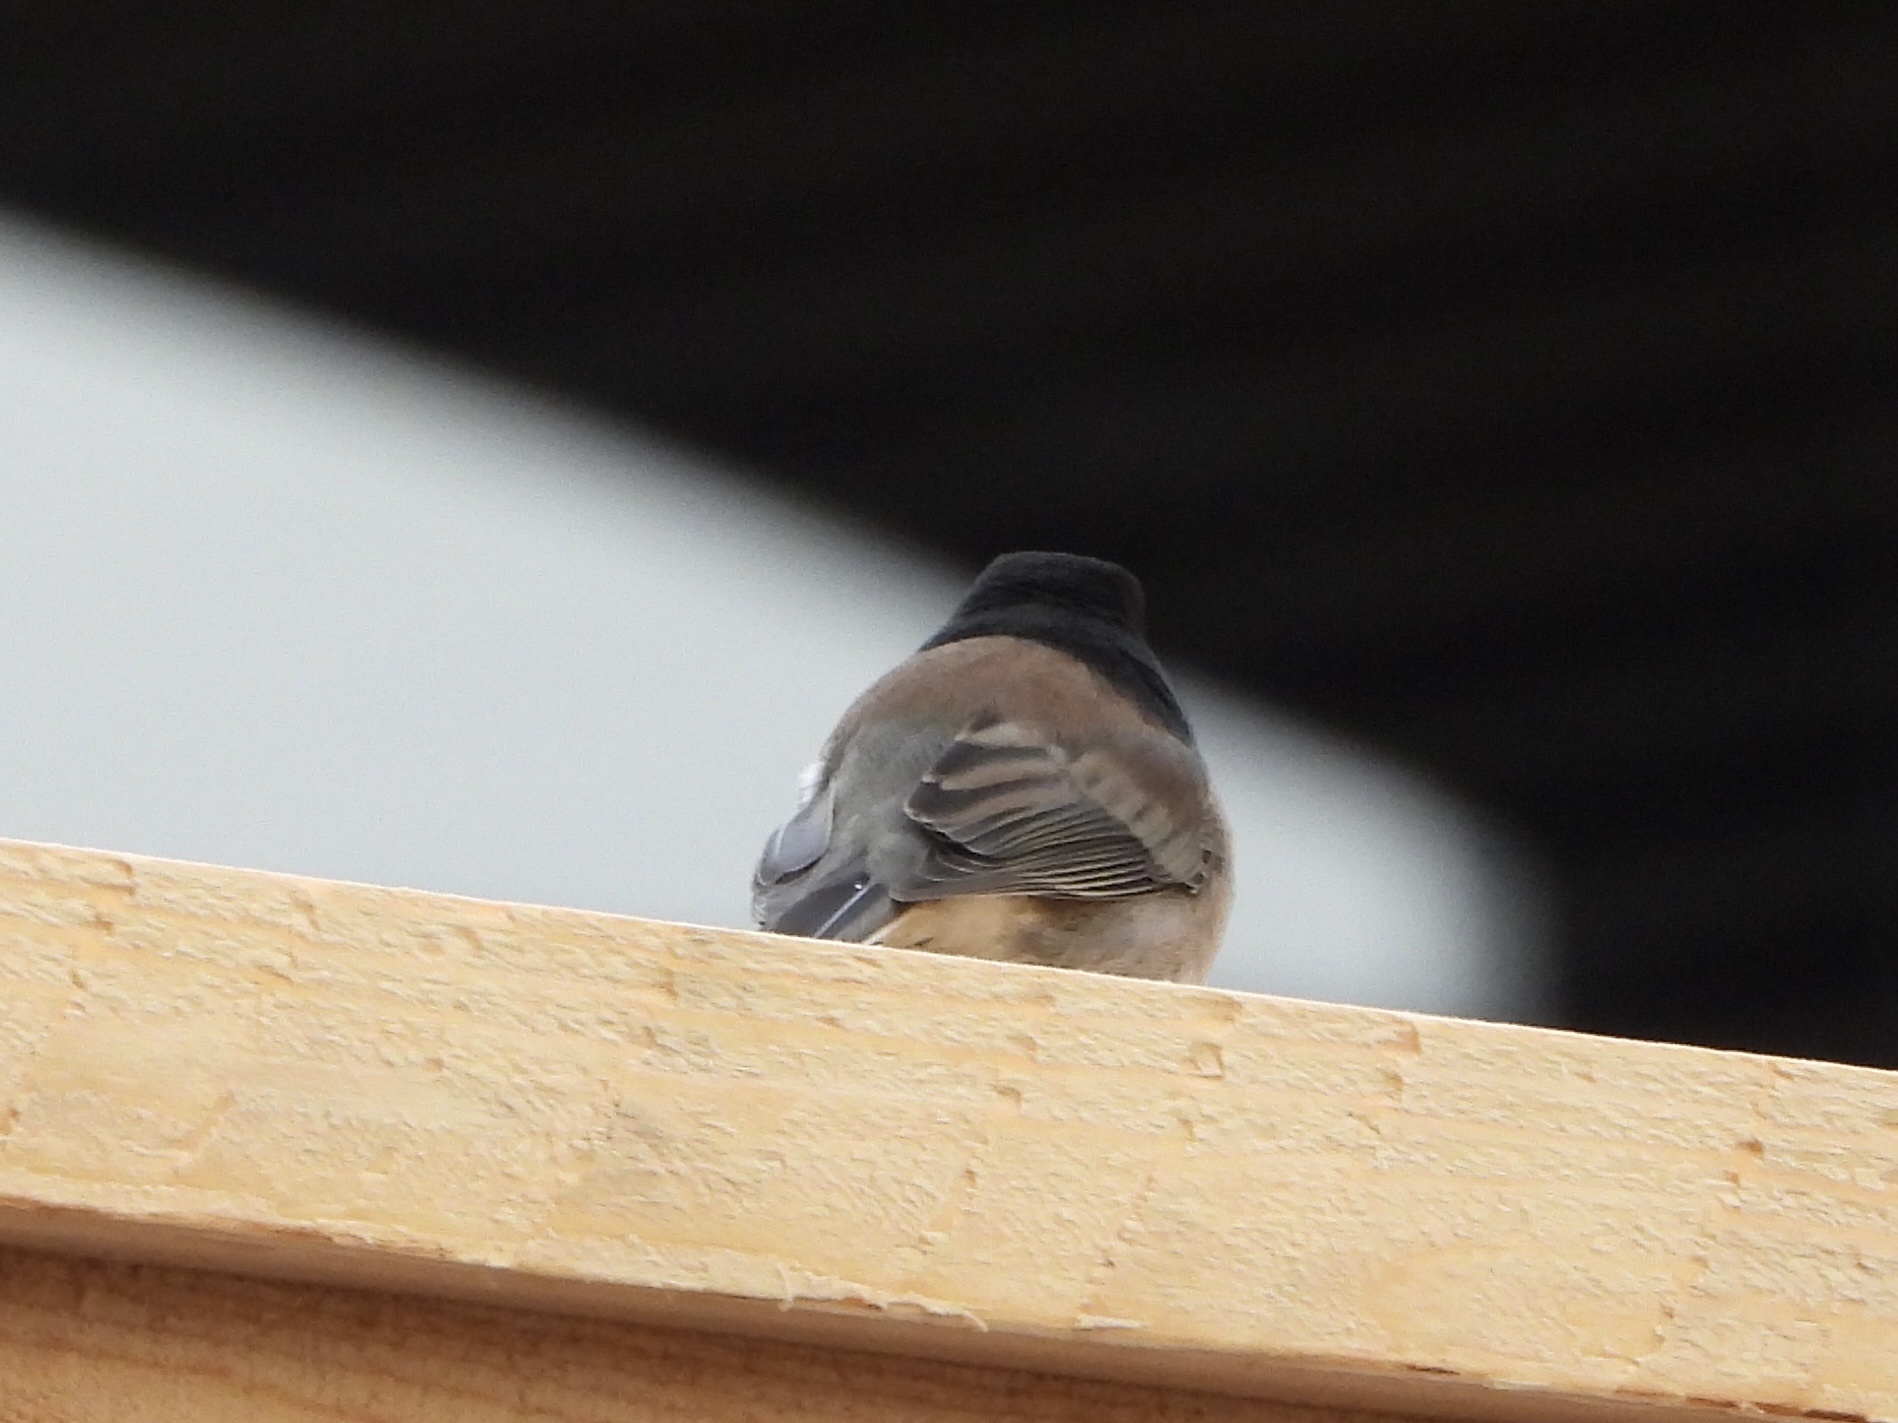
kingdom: Animalia
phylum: Chordata
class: Aves
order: Passeriformes
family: Passerellidae
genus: Junco
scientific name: Junco hyemalis
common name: Dark-eyed junco
